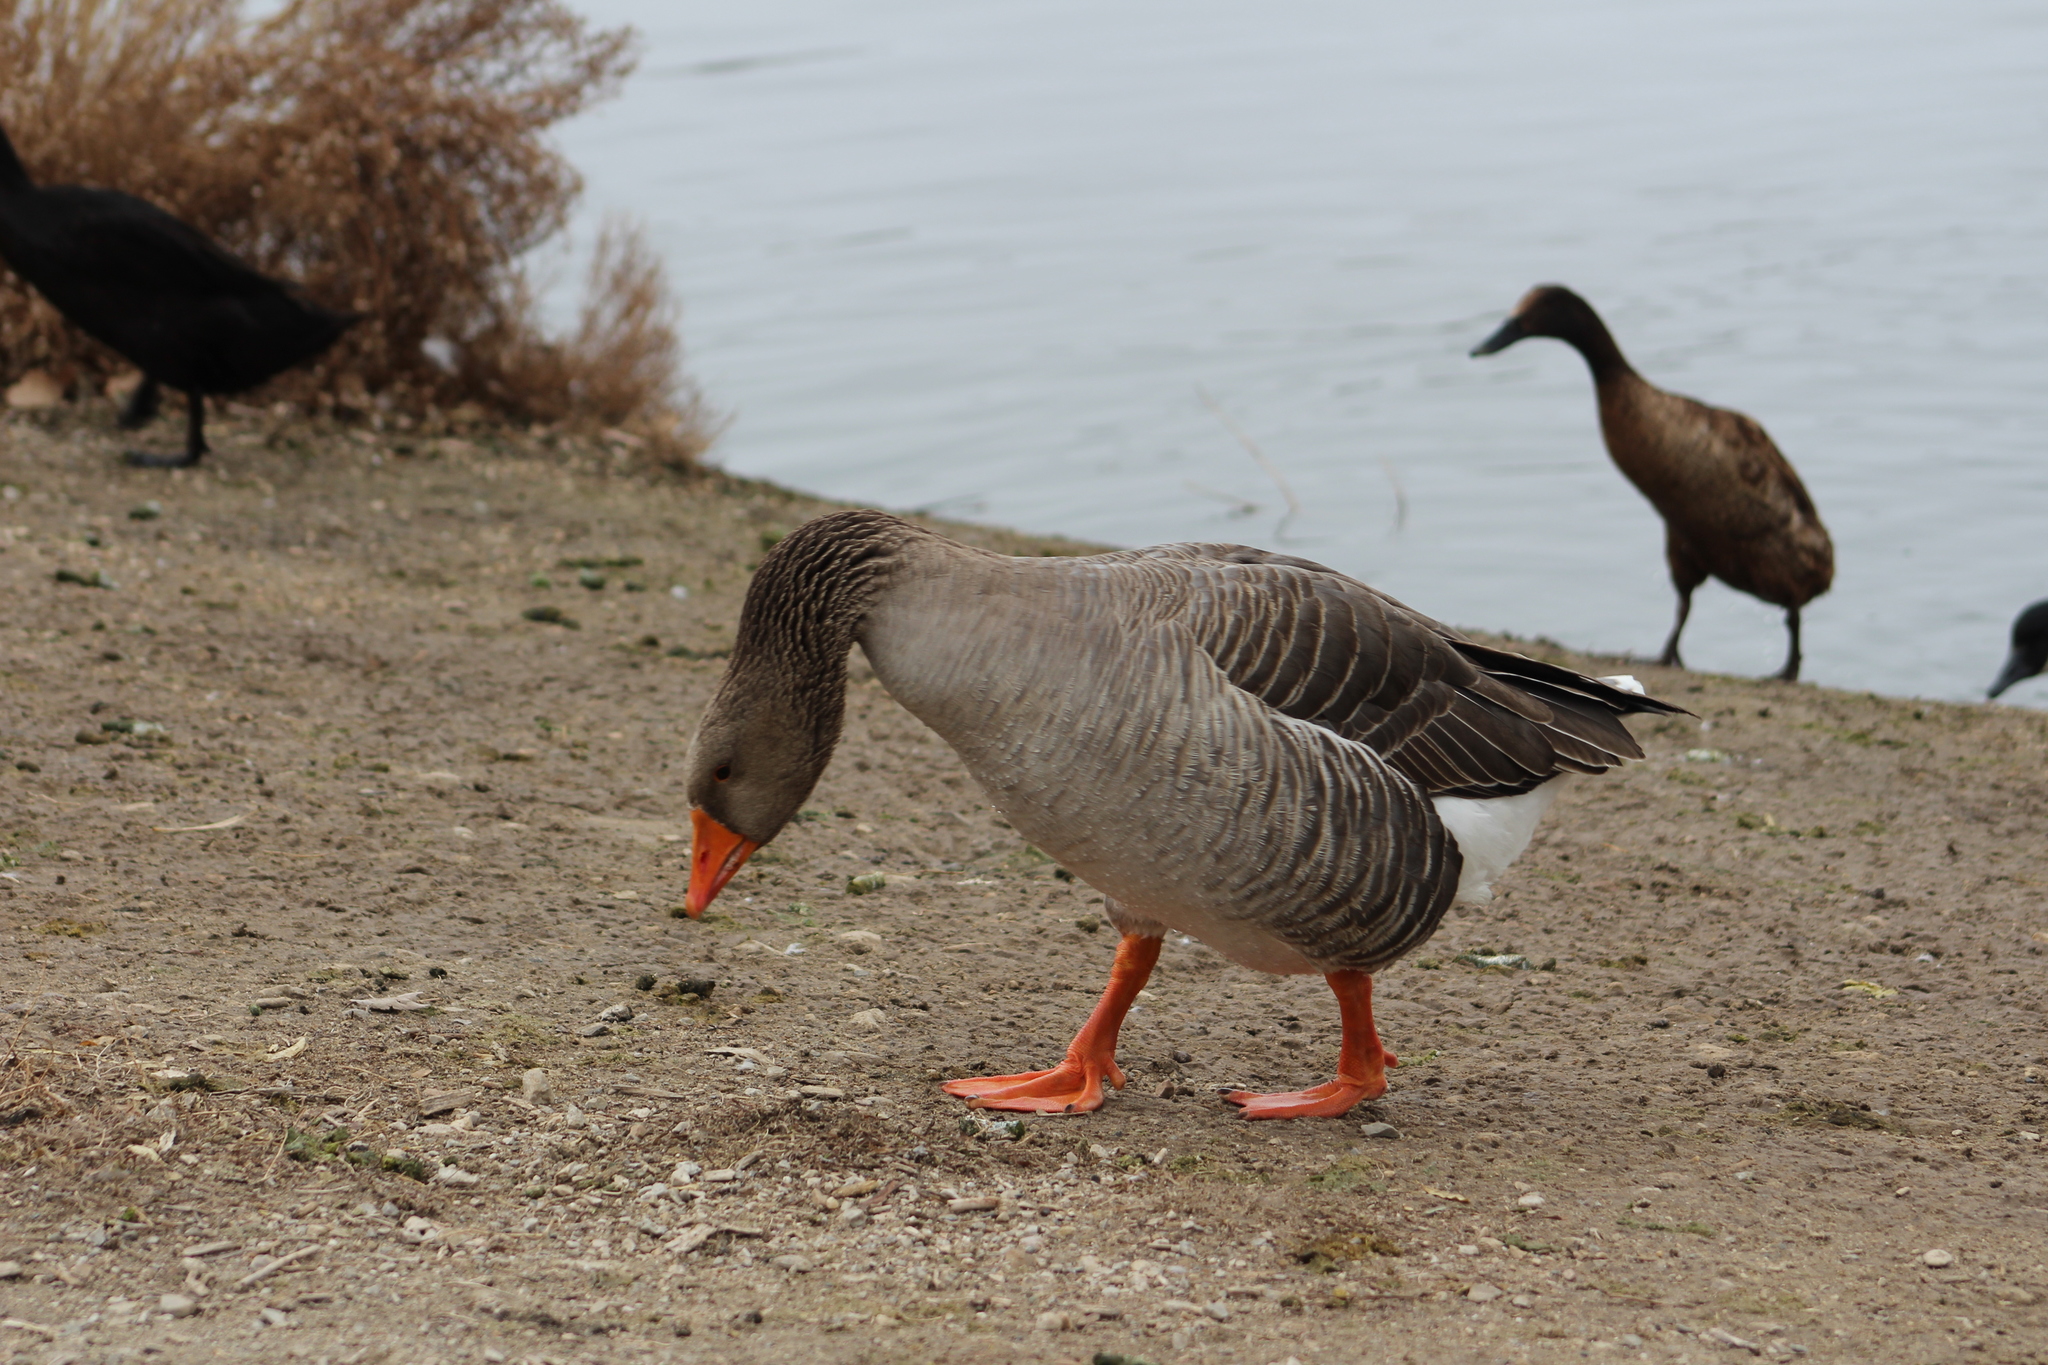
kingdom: Animalia
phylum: Chordata
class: Aves
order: Anseriformes
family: Anatidae
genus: Anser
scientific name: Anser anser
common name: Greylag goose
